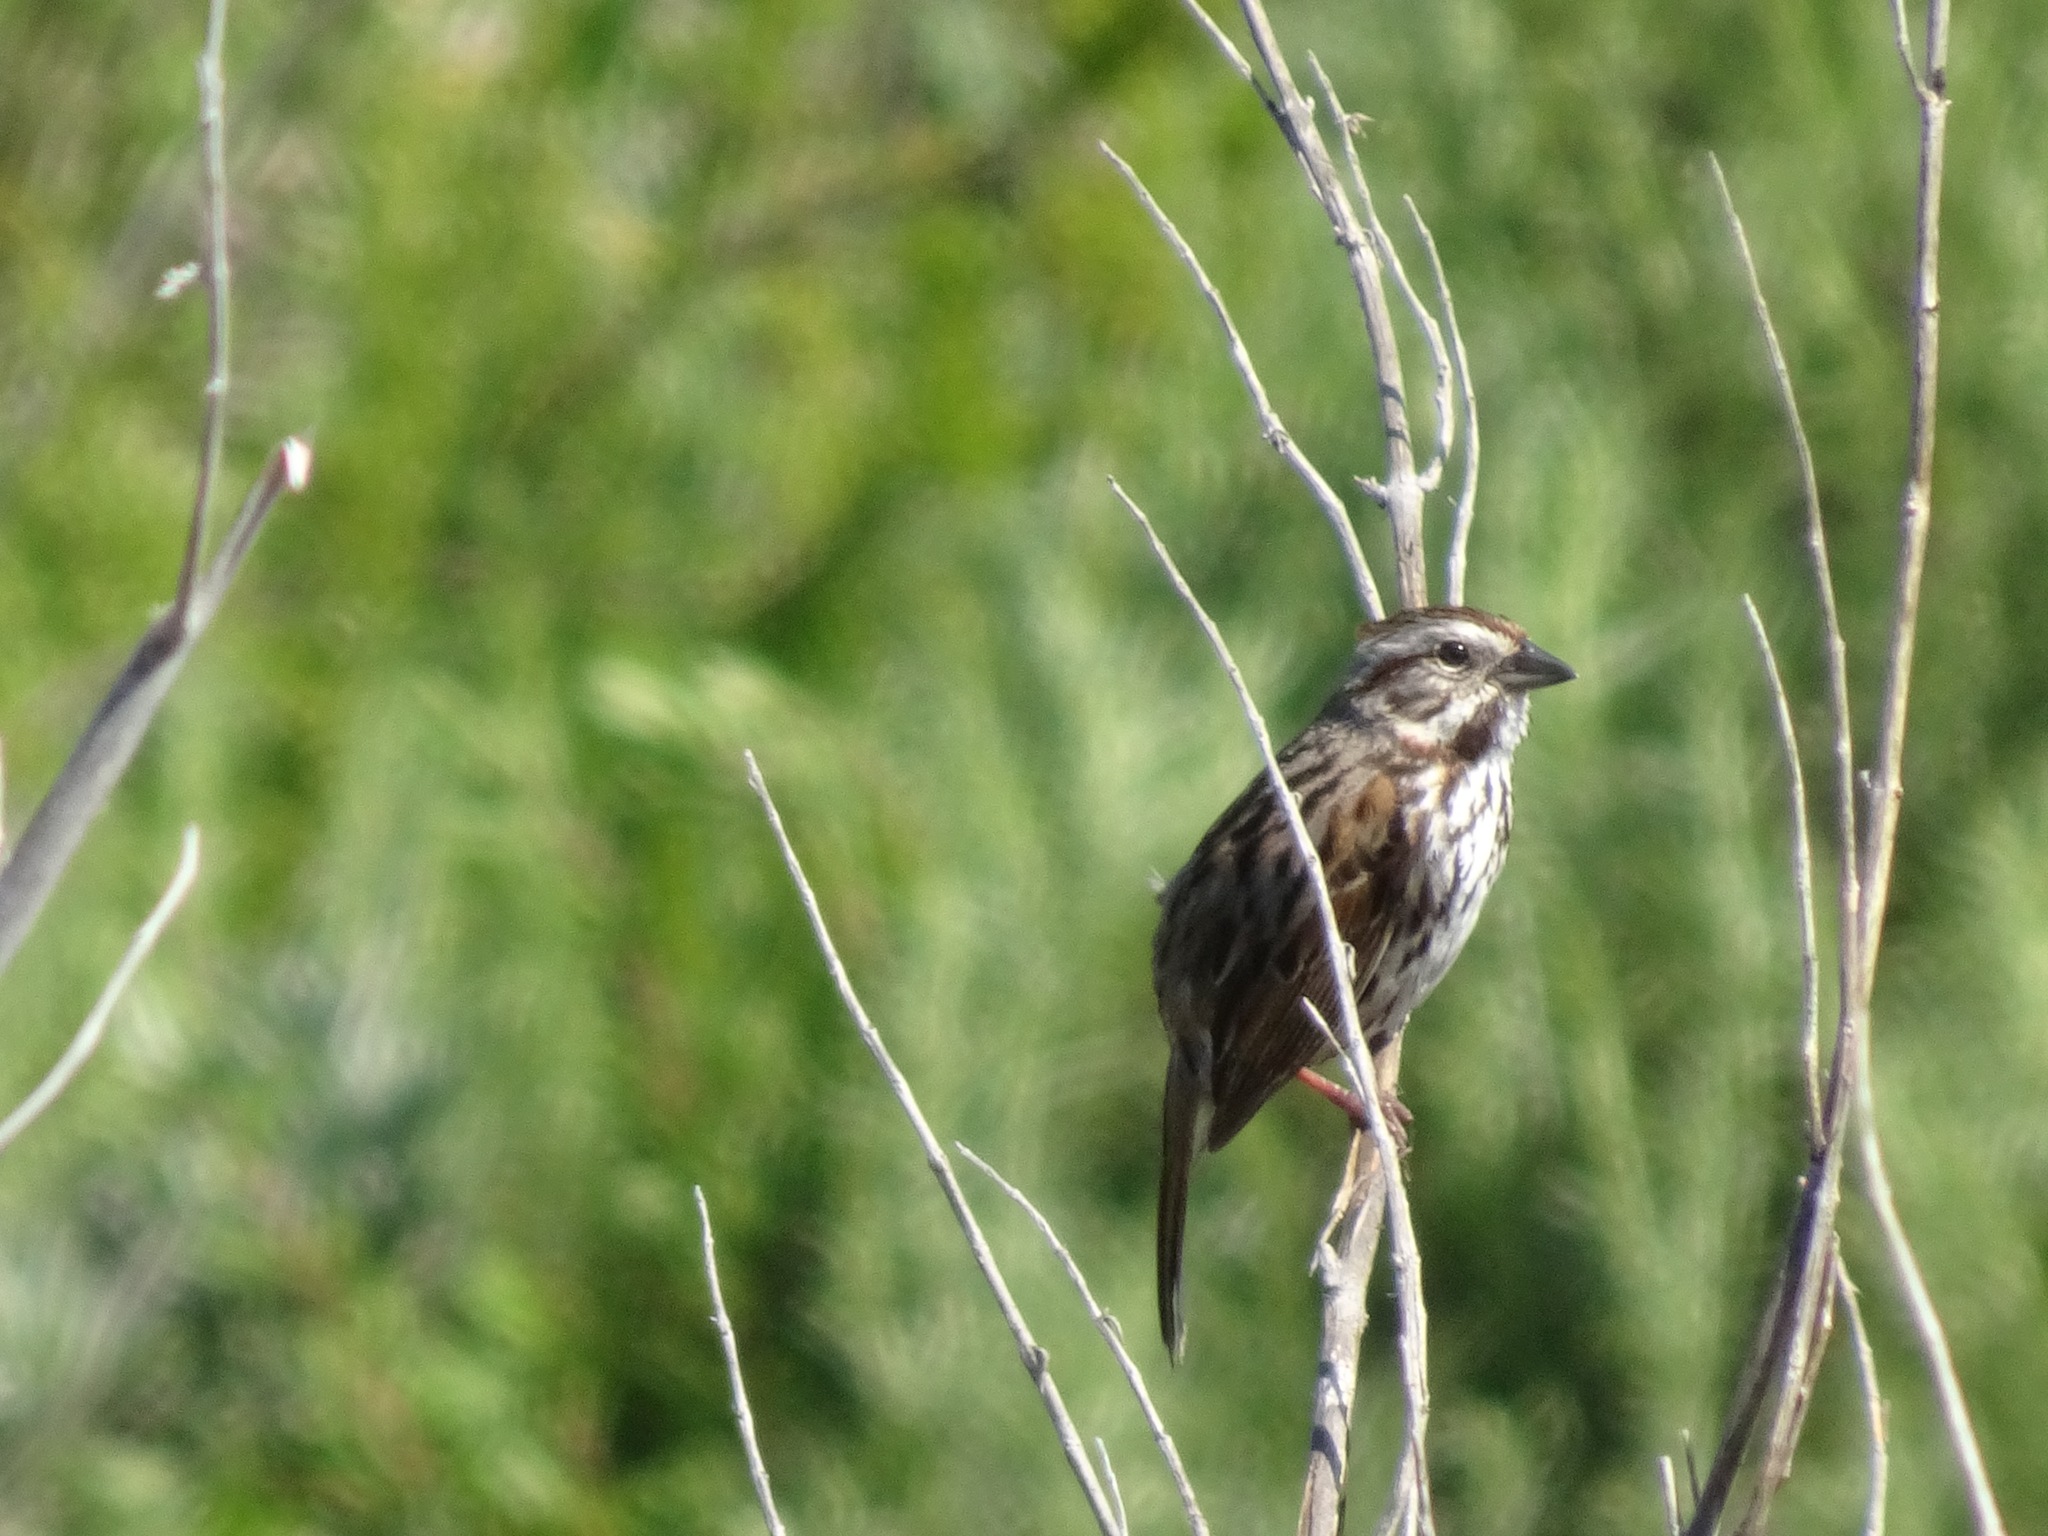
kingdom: Animalia
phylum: Chordata
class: Aves
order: Passeriformes
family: Passerellidae
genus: Melospiza
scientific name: Melospiza melodia
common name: Song sparrow
